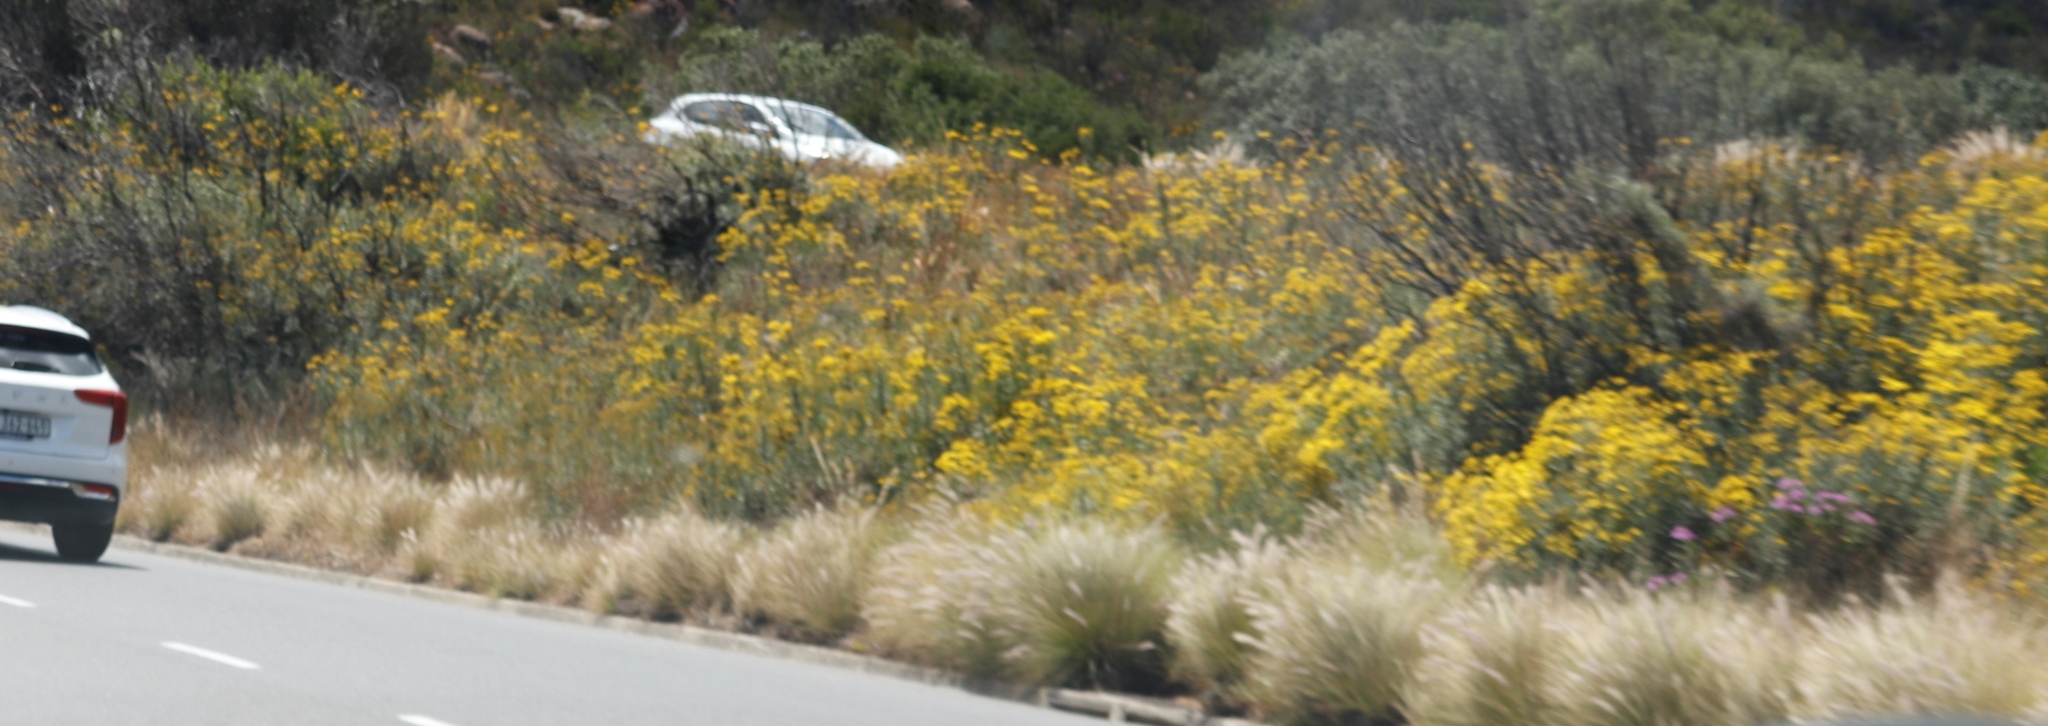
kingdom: Plantae
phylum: Tracheophyta
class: Liliopsida
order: Poales
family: Poaceae
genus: Cenchrus
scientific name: Cenchrus setaceus
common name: Crimson fountaingrass
